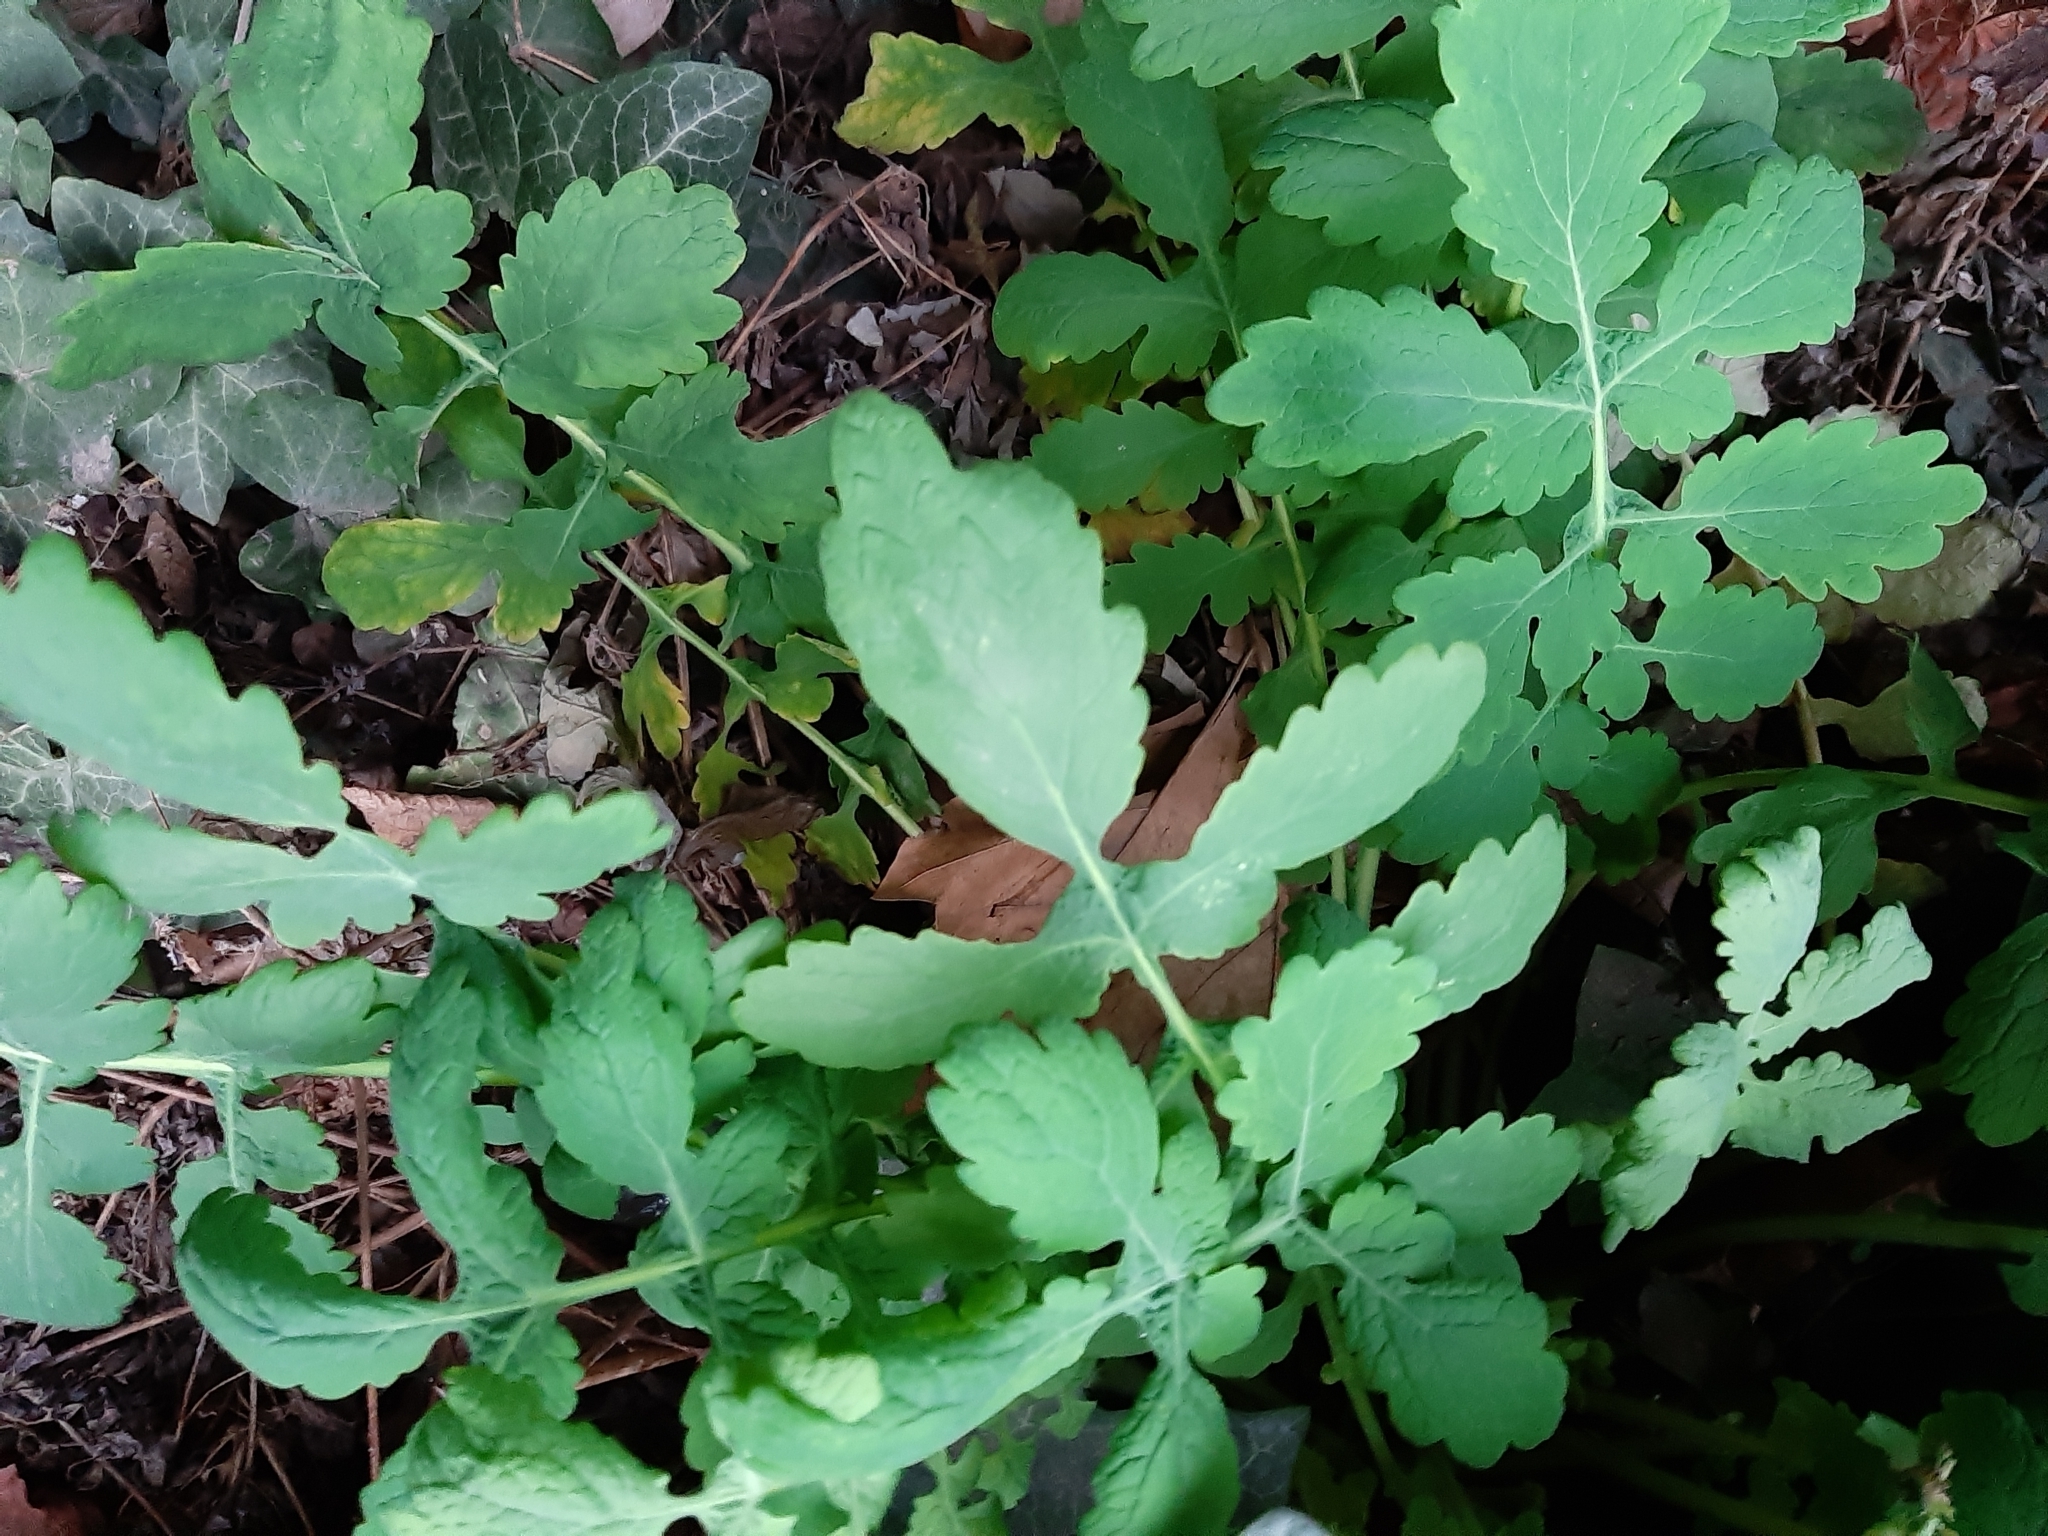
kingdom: Plantae
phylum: Tracheophyta
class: Magnoliopsida
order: Ranunculales
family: Papaveraceae
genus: Chelidonium
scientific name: Chelidonium majus
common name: Greater celandine
